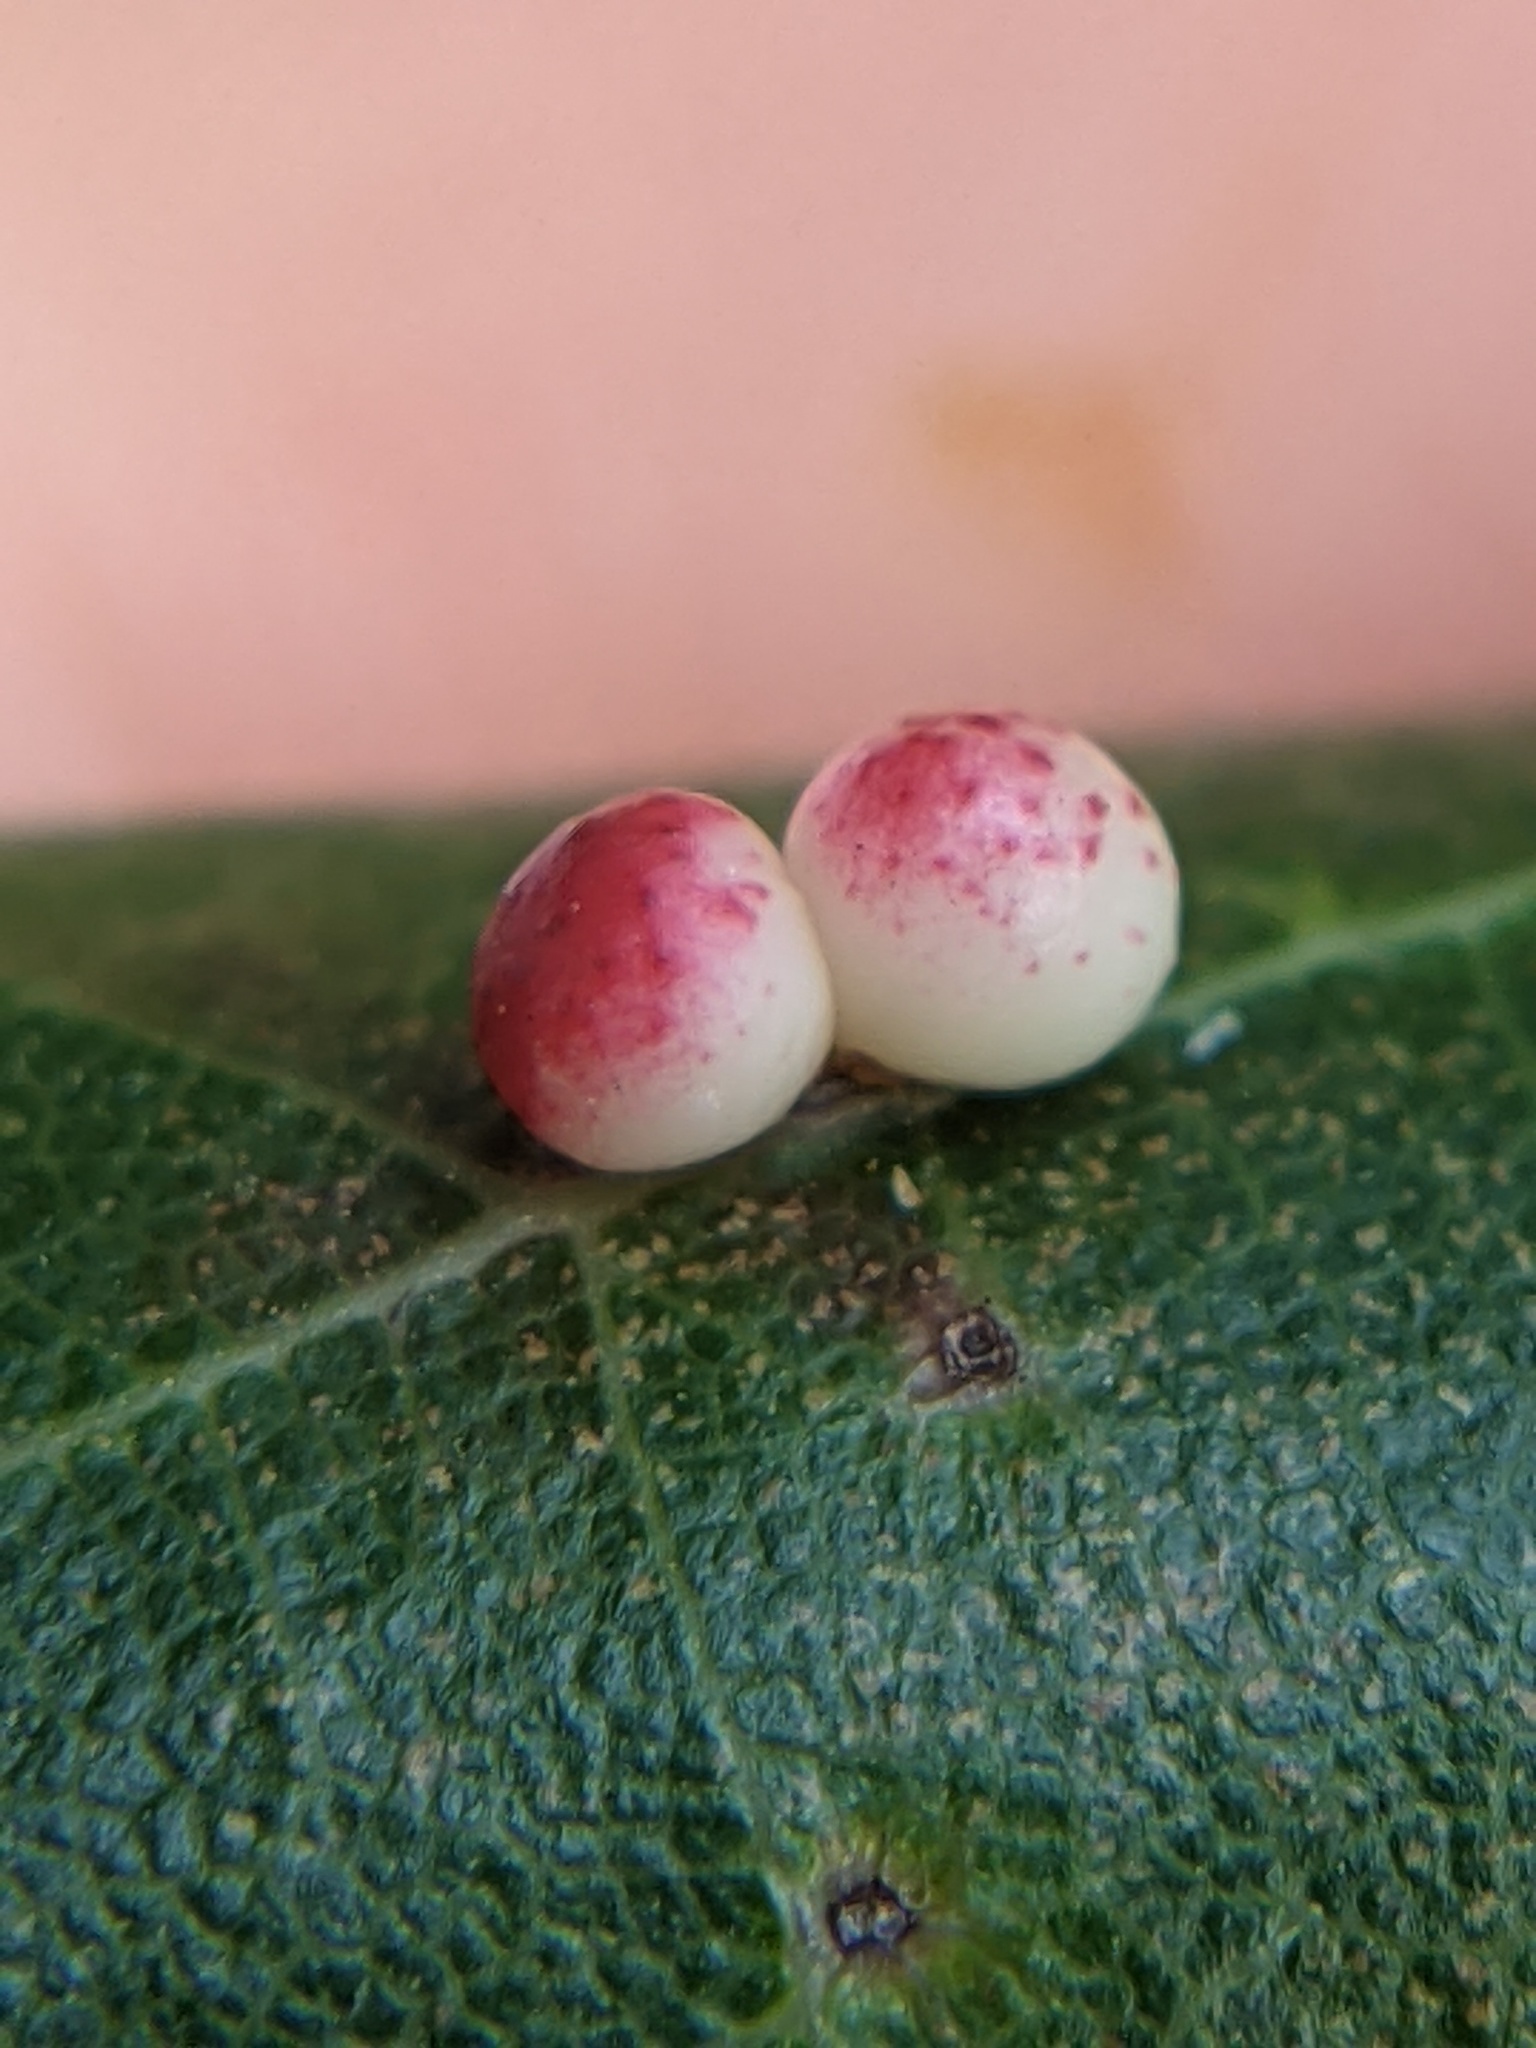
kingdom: Animalia
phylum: Arthropoda
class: Insecta
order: Hymenoptera
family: Cynipidae
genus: Zopheroteras
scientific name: Zopheroteras
